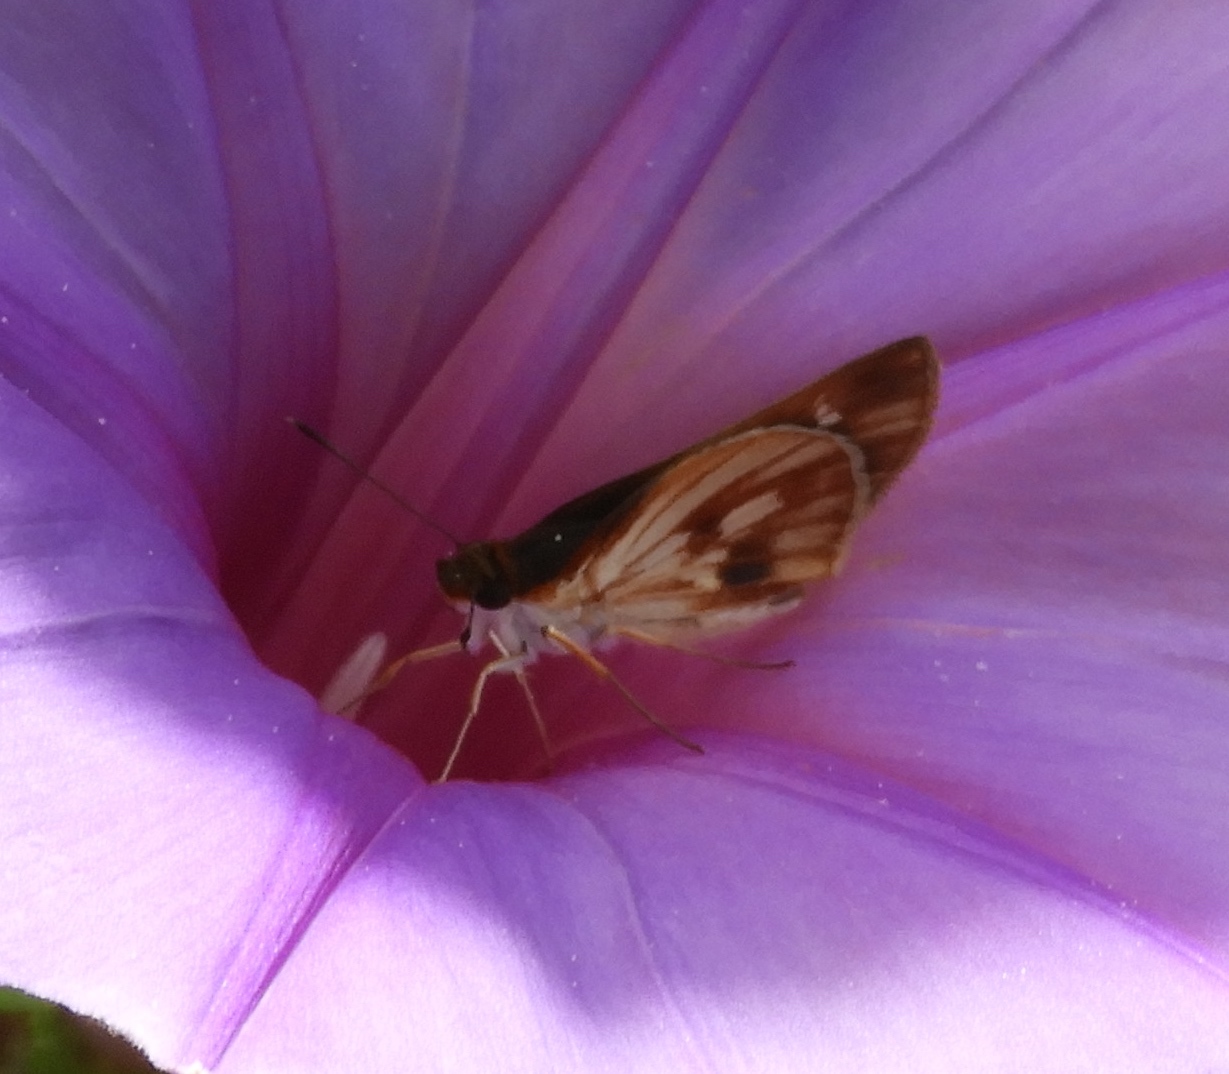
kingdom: Animalia
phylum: Arthropoda
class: Insecta
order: Lepidoptera
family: Hesperiidae
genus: Troyus
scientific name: Troyus fantasos
